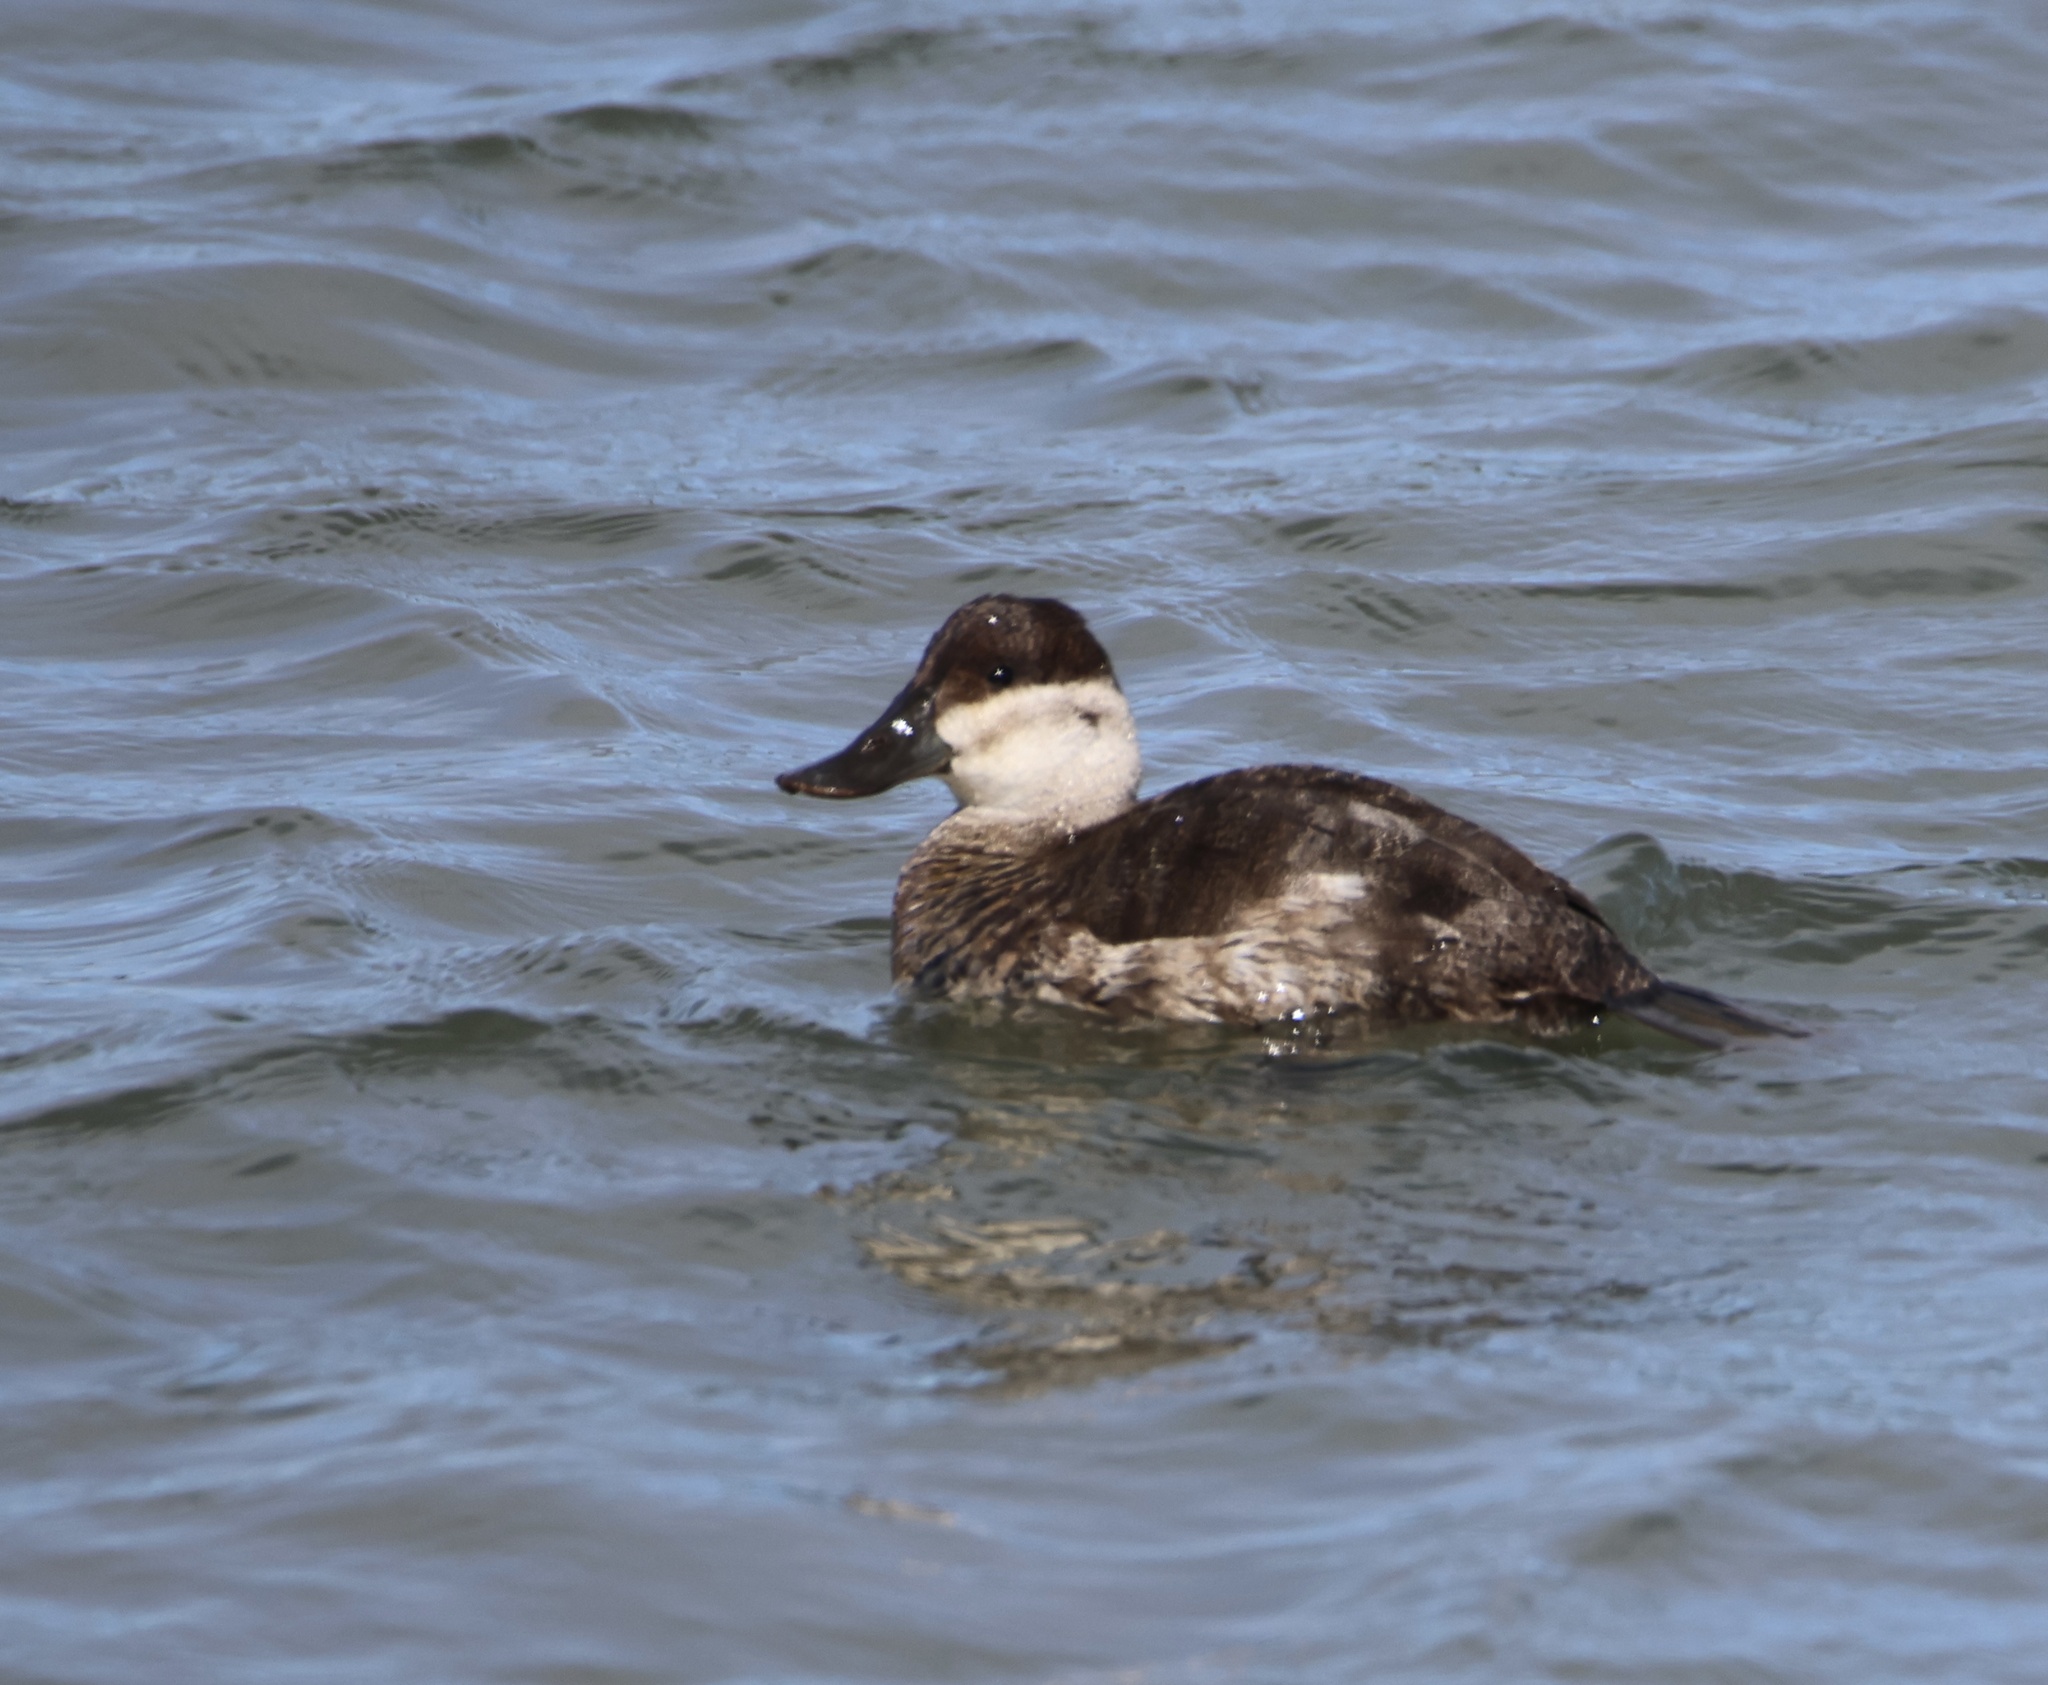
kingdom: Animalia
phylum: Chordata
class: Aves
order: Anseriformes
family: Anatidae
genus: Oxyura
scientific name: Oxyura jamaicensis
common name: Ruddy duck
